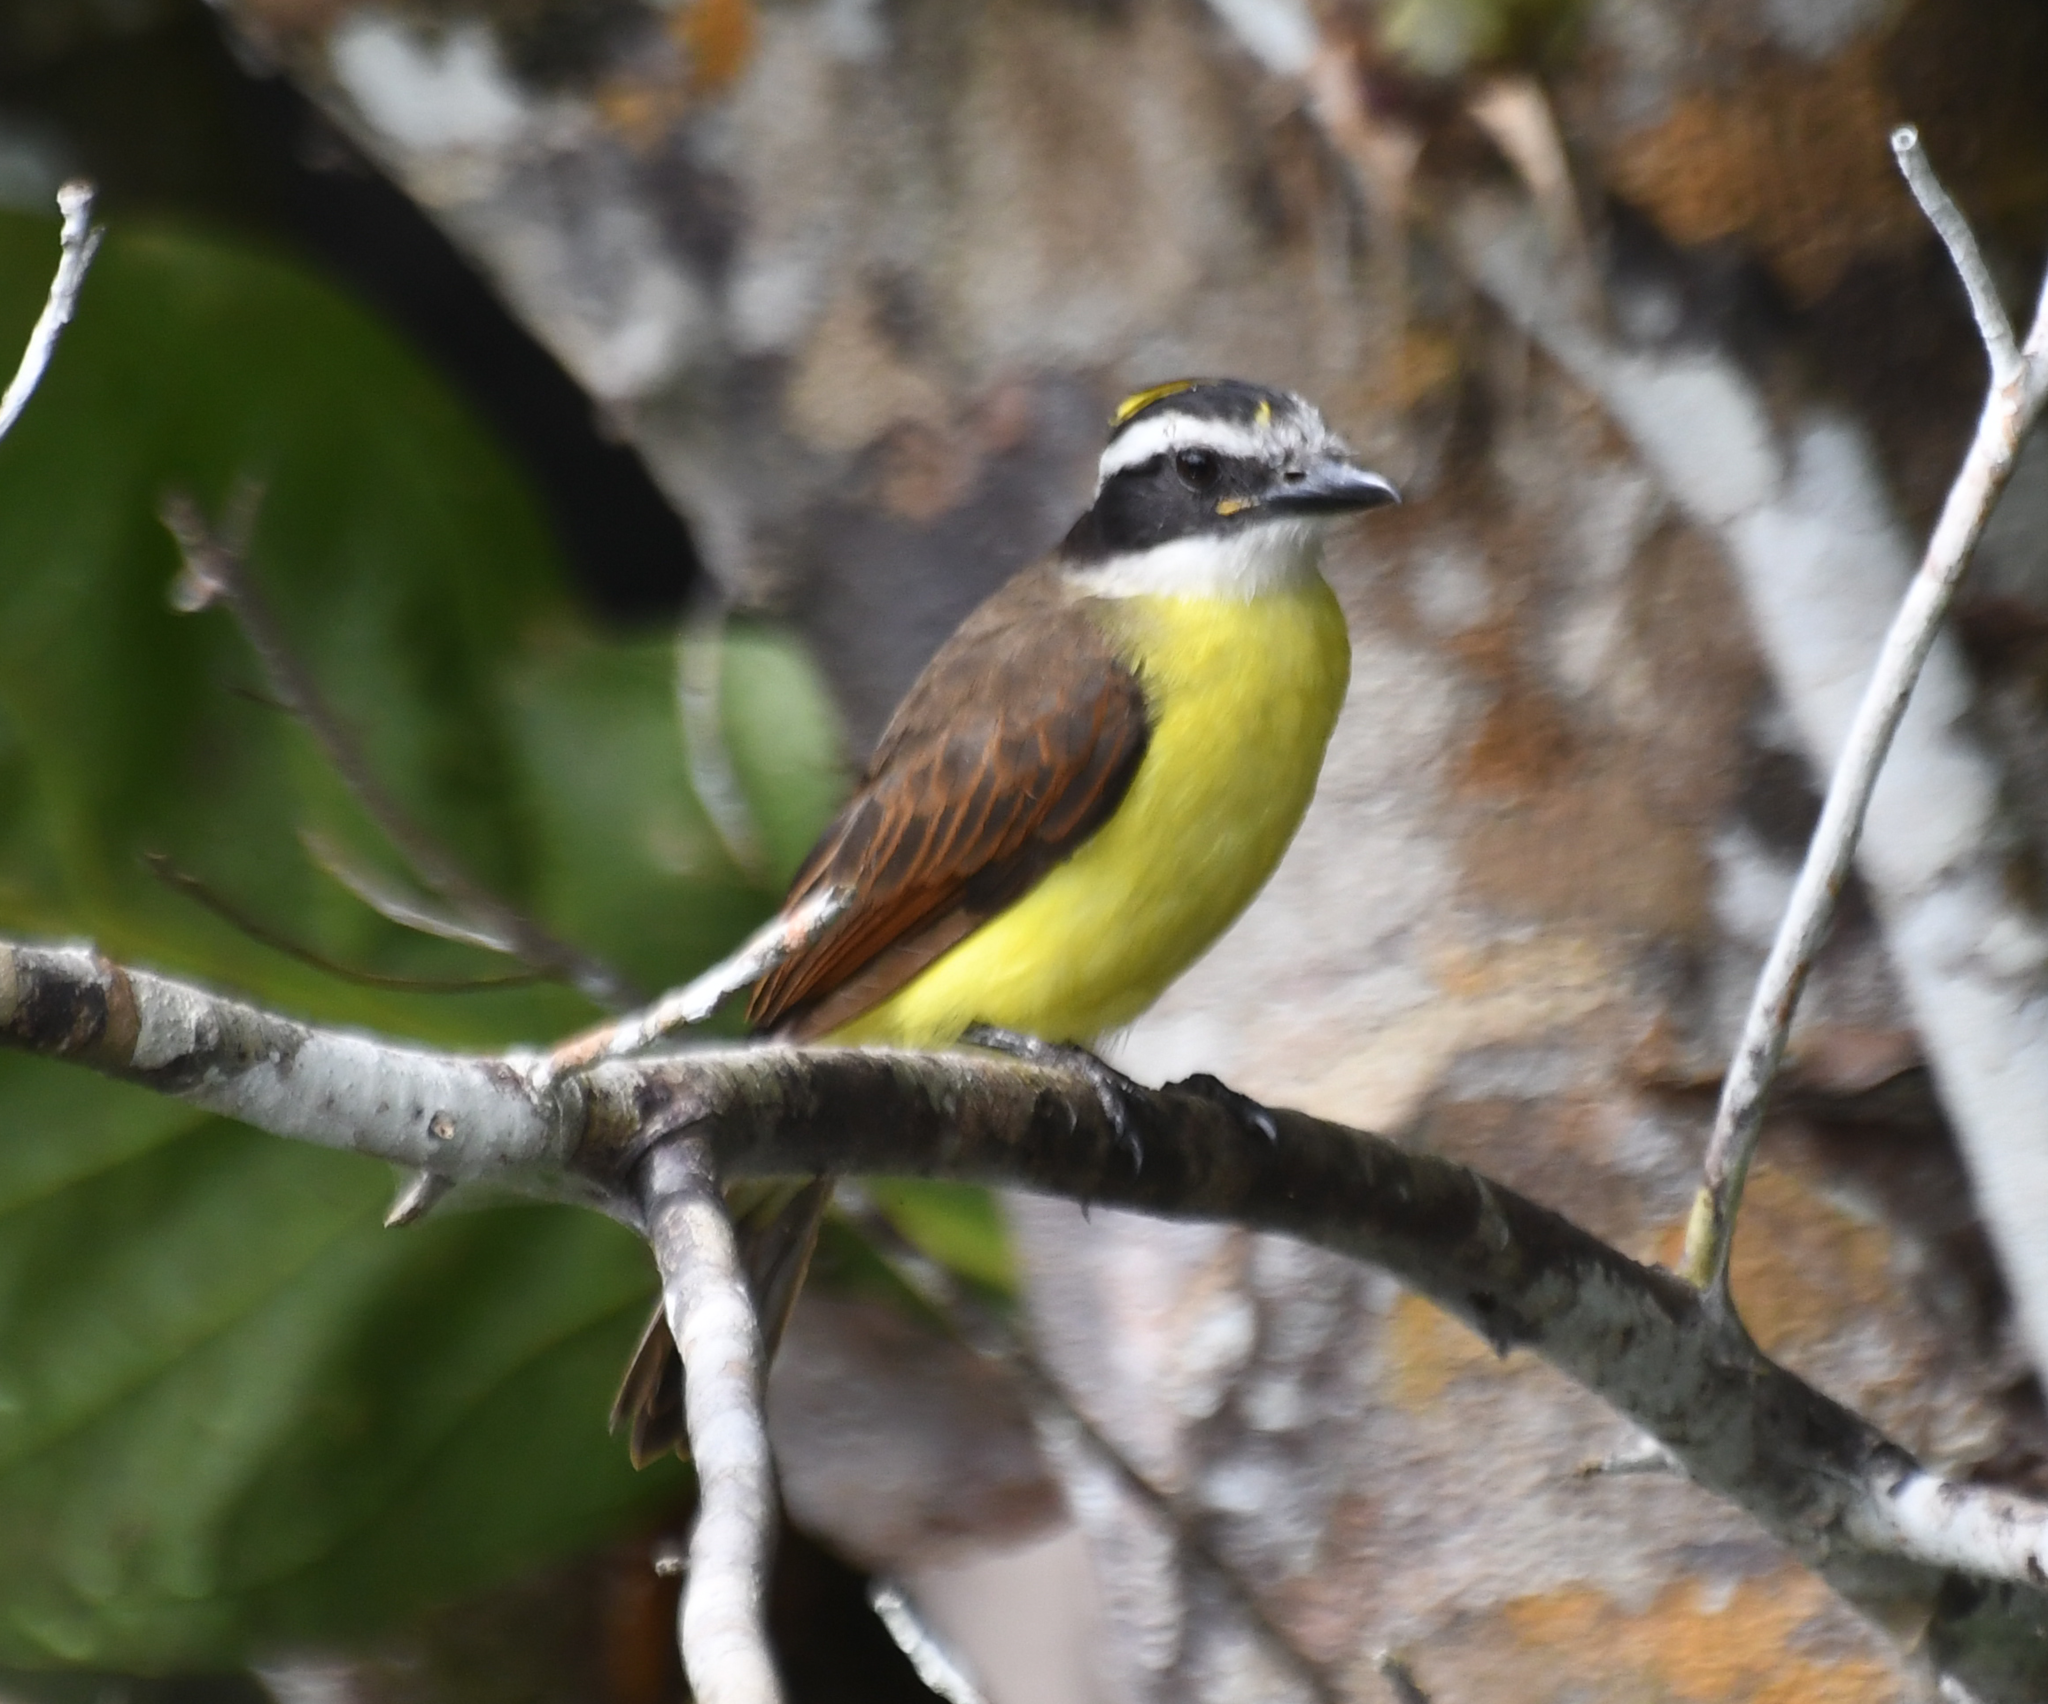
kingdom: Animalia
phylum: Chordata
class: Aves
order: Passeriformes
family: Tyrannidae
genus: Pitangus
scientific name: Pitangus sulphuratus
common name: Great kiskadee
